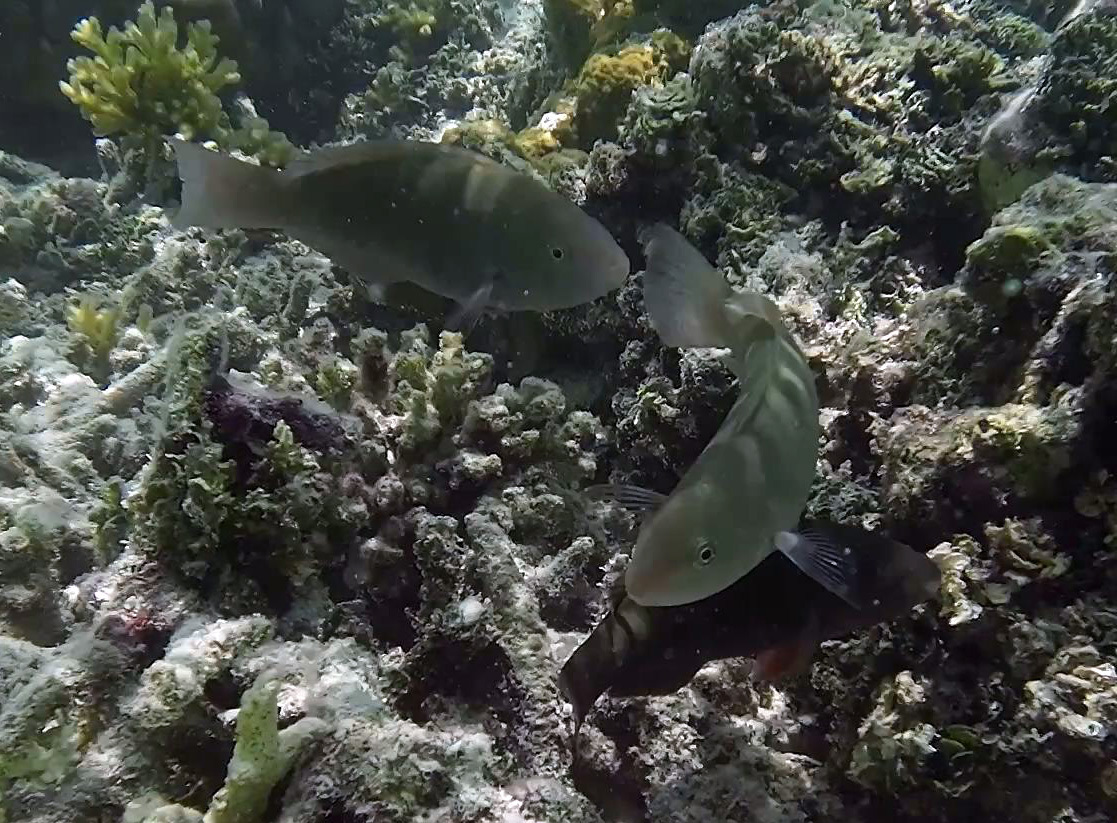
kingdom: Animalia
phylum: Chordata
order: Perciformes
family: Scaridae
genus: Scarus
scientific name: Scarus psittacus
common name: Palenose parrotfish
